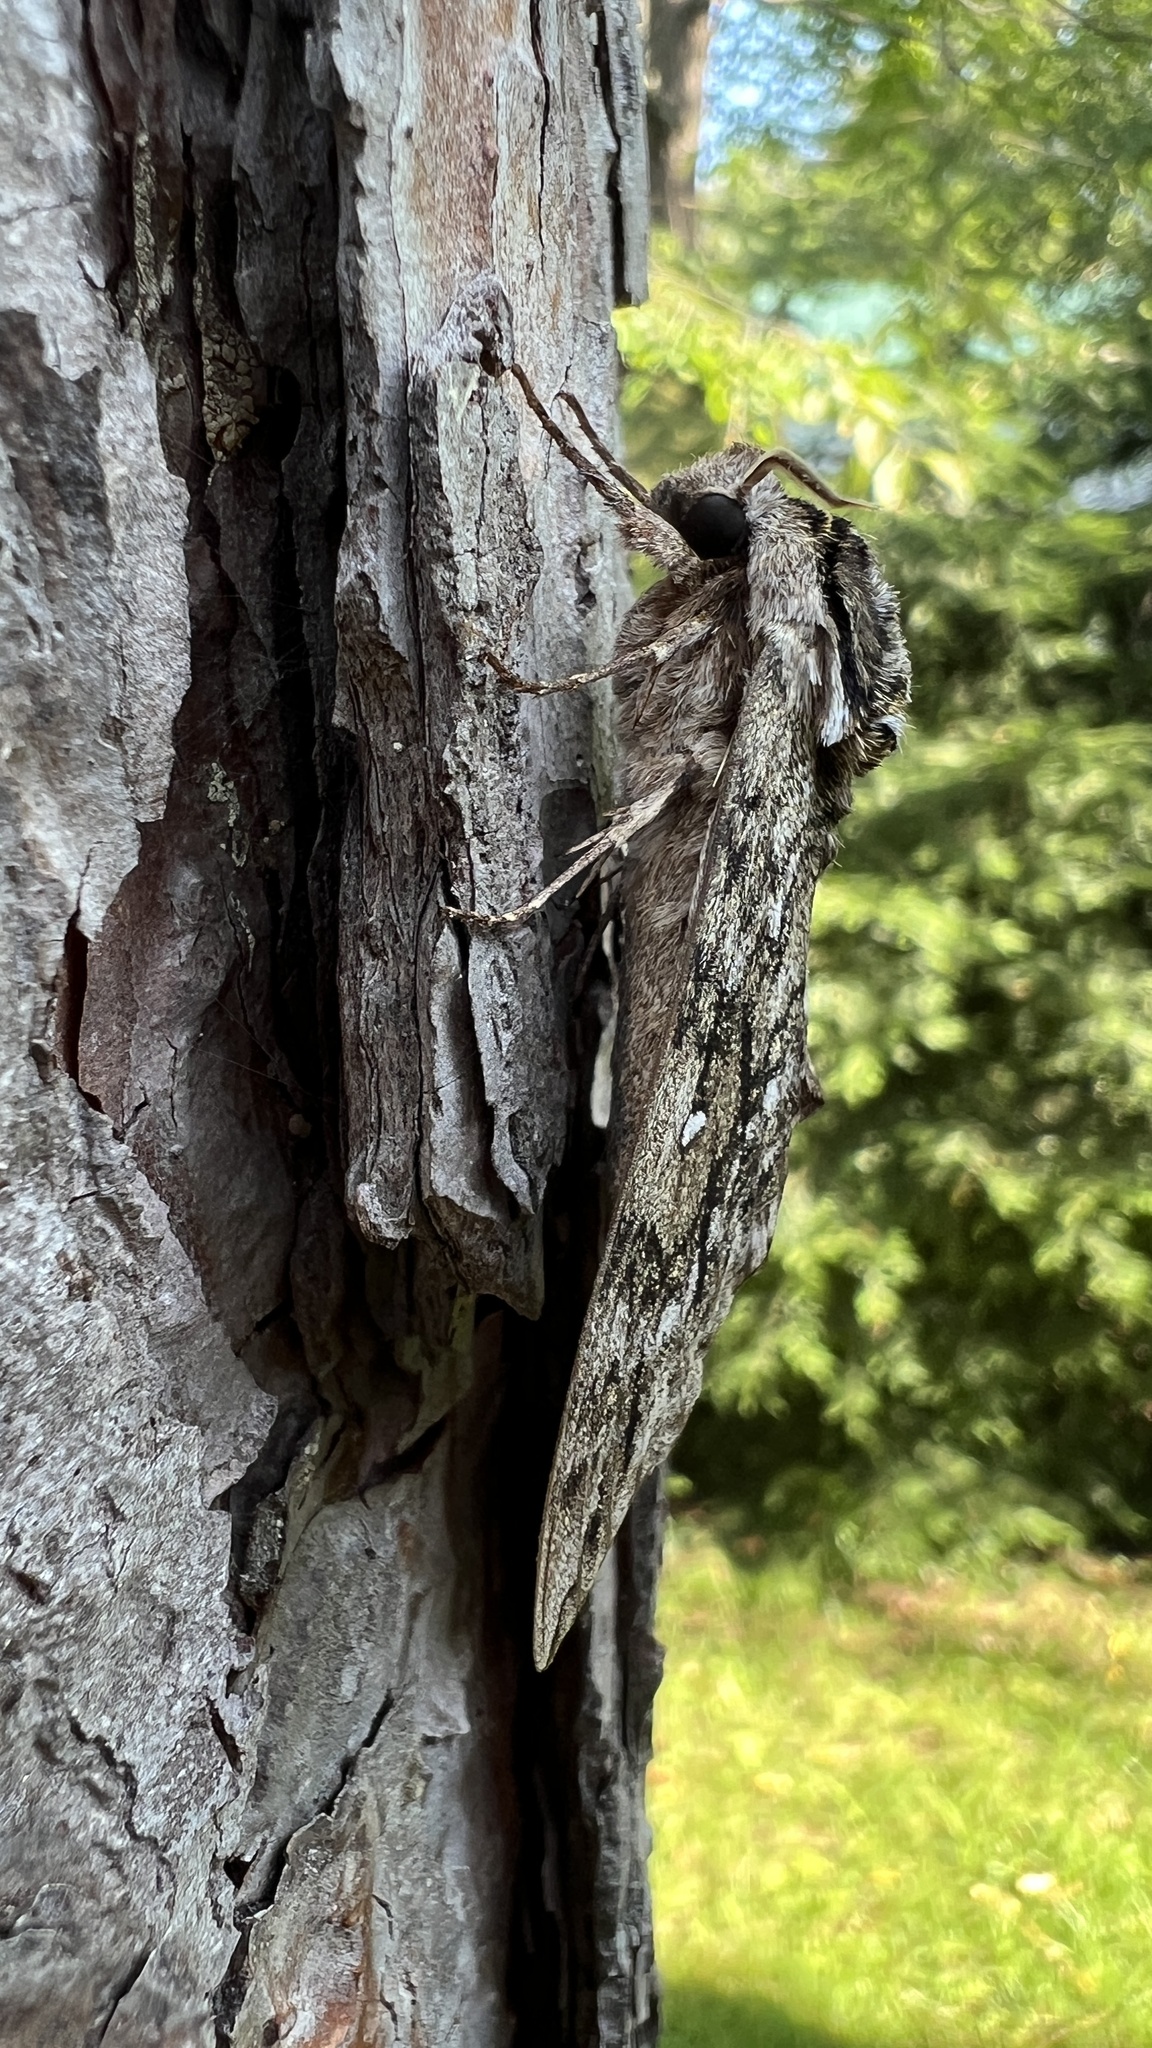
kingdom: Animalia
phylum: Arthropoda
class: Insecta
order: Lepidoptera
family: Sphingidae
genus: Ceratomia
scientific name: Ceratomia undulosa
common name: Waved sphinx
